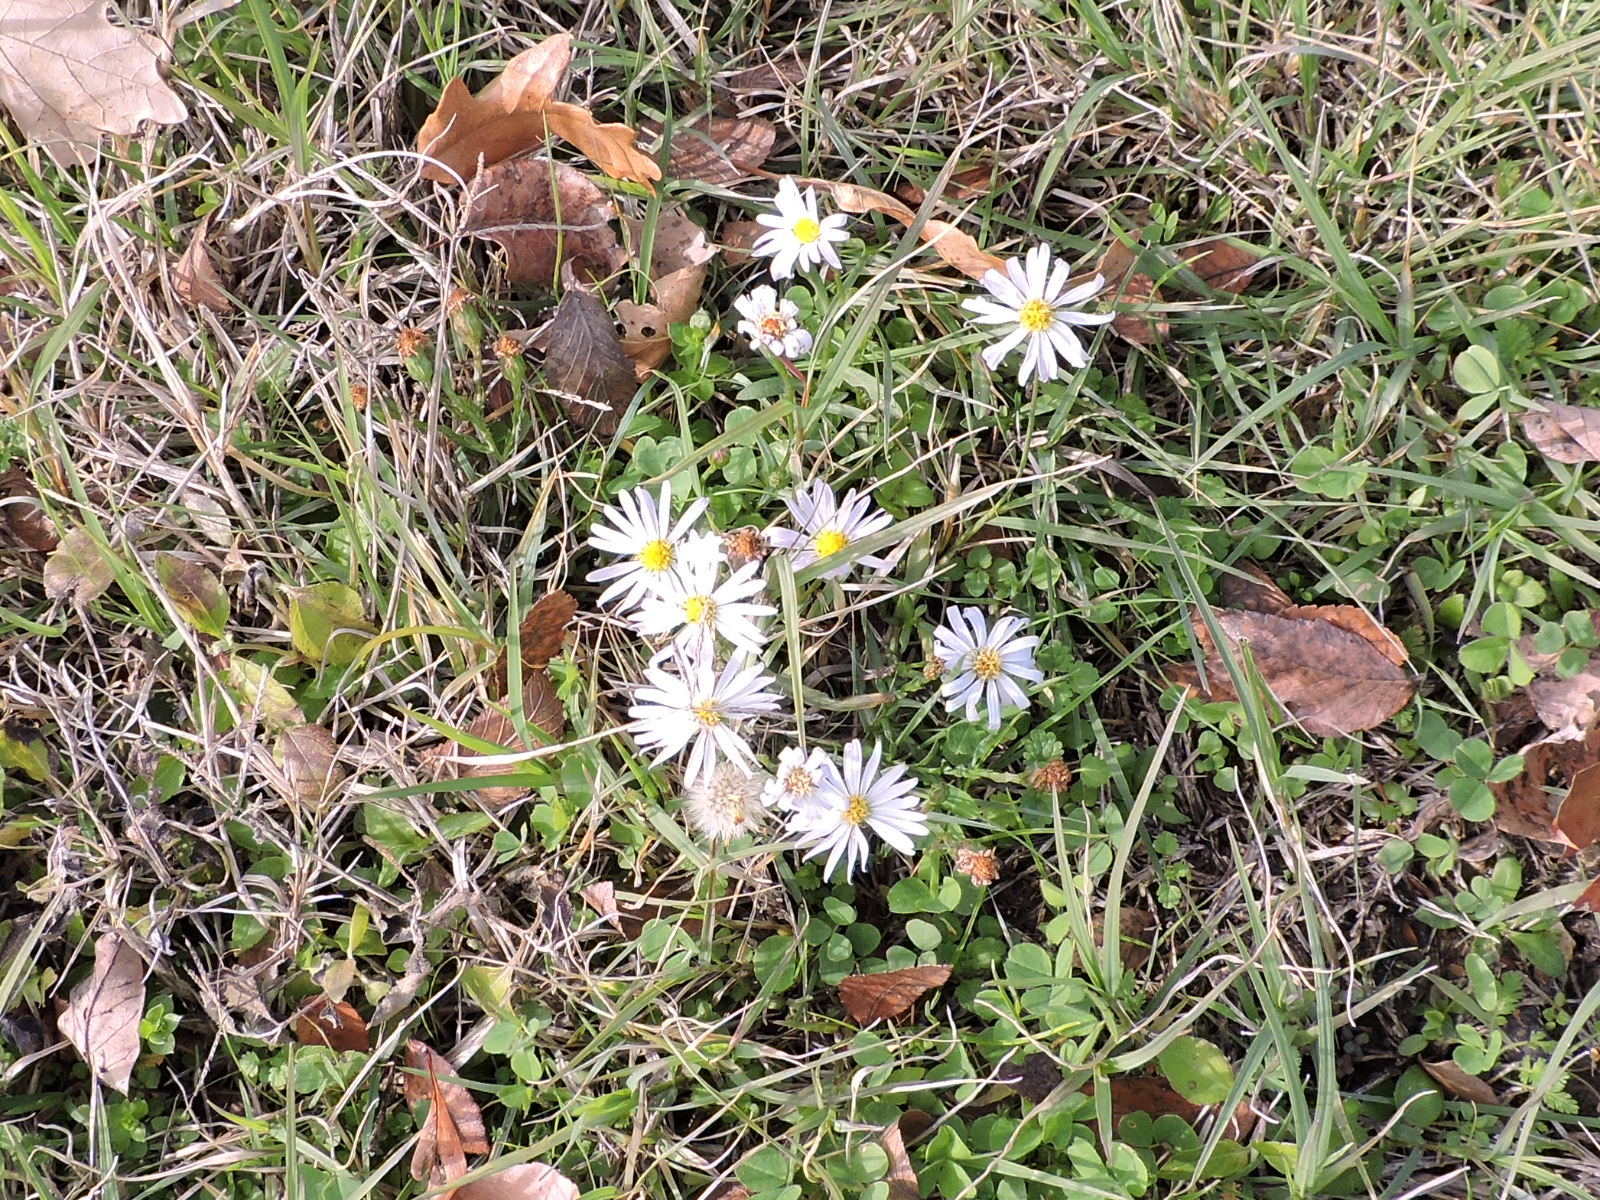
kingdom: Plantae
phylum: Tracheophyta
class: Magnoliopsida
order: Asterales
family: Asteraceae
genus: Symphyotrichum
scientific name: Symphyotrichum divaricatum
